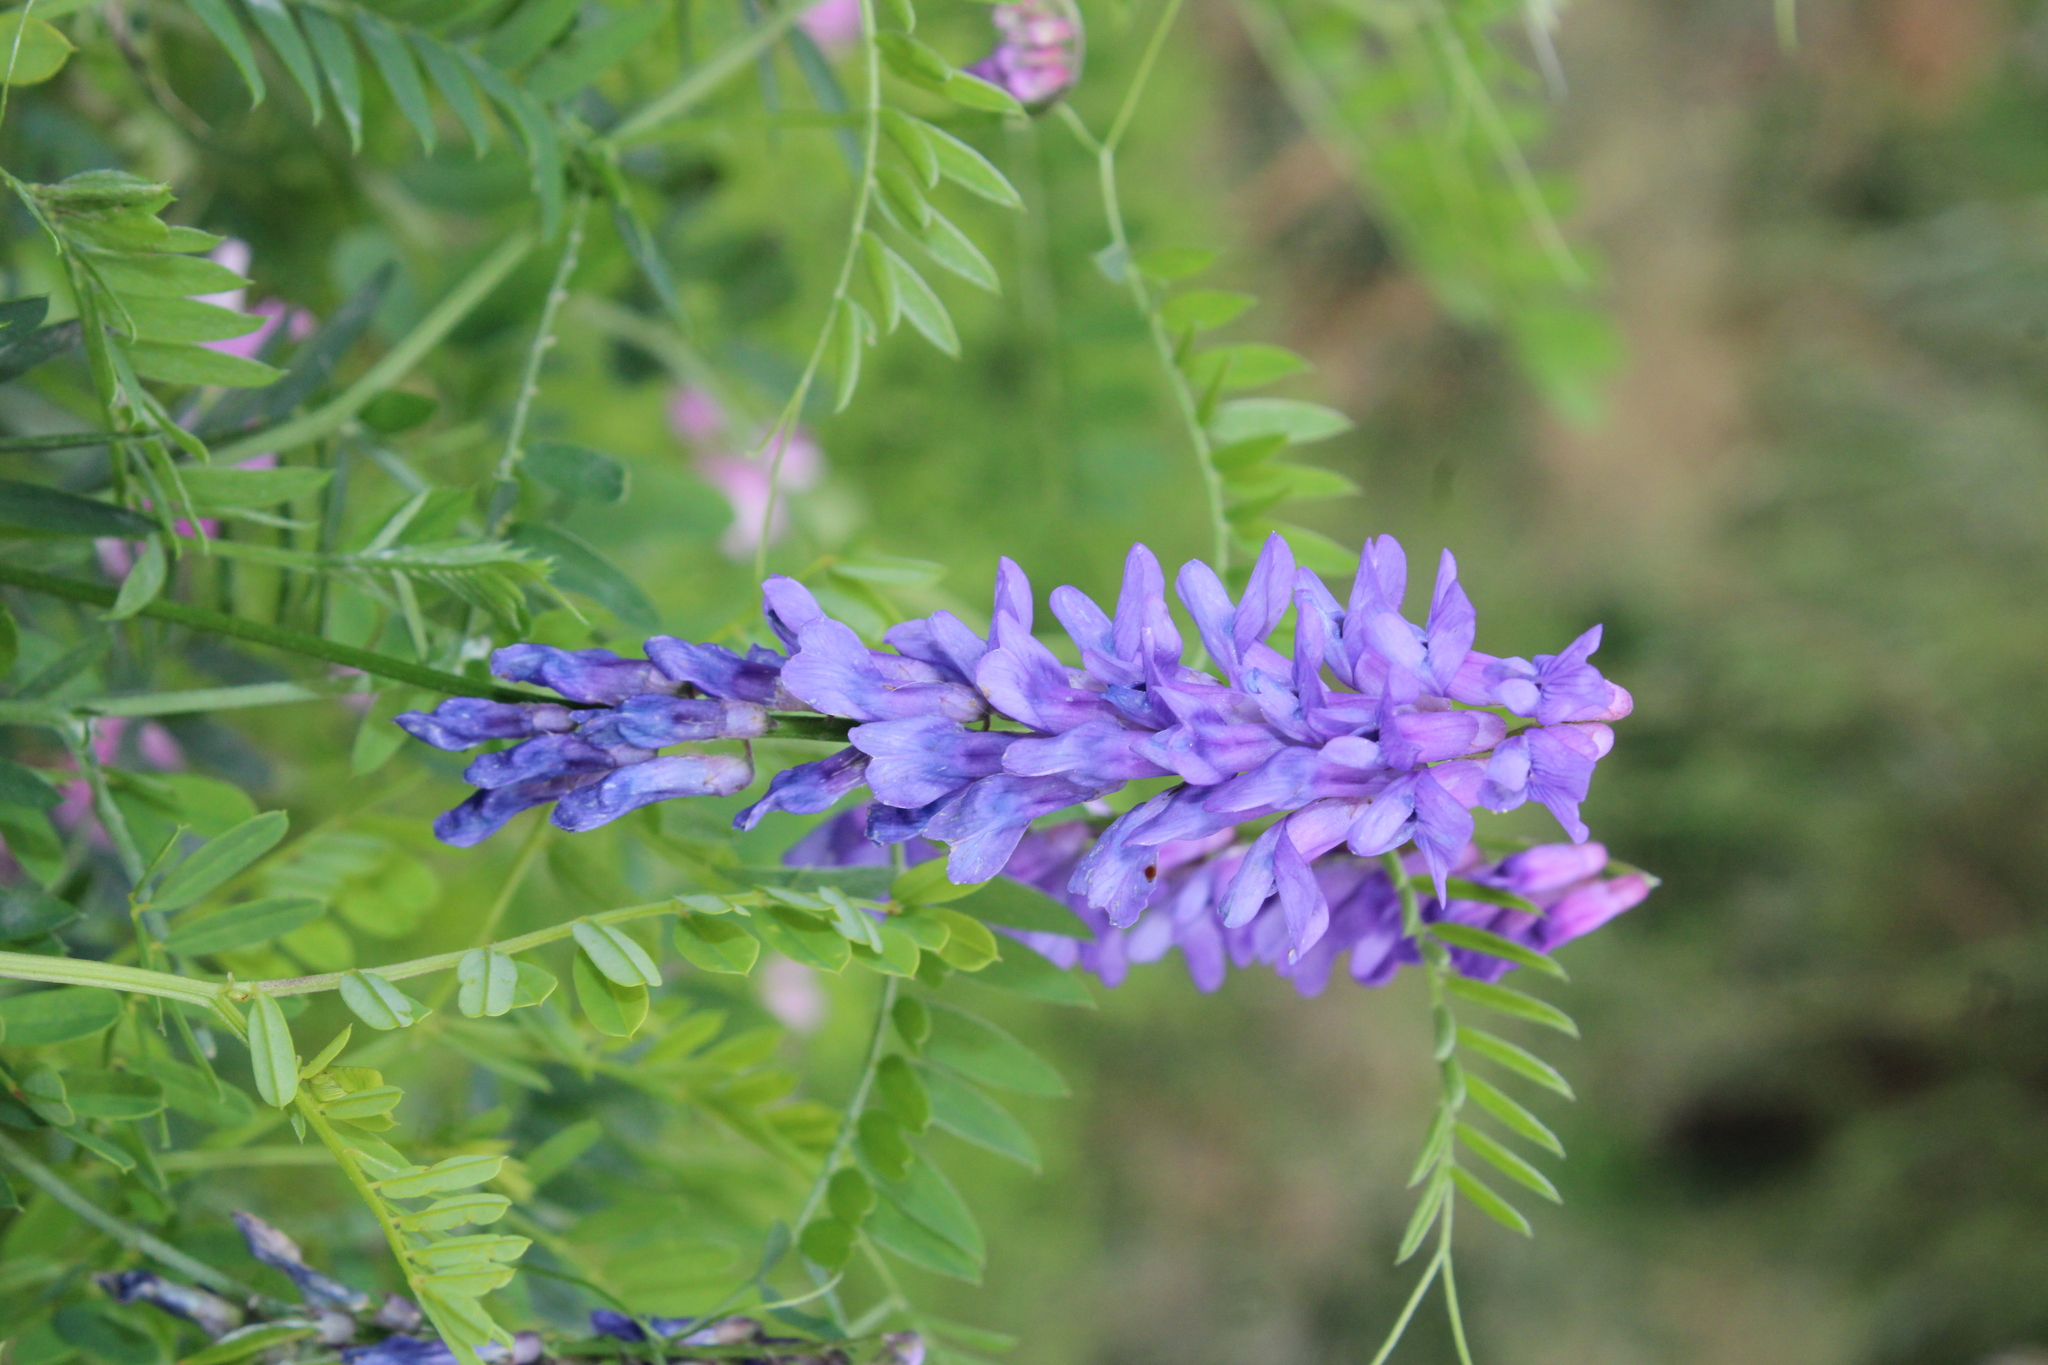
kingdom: Plantae
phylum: Tracheophyta
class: Magnoliopsida
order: Fabales
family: Fabaceae
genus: Vicia
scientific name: Vicia cracca
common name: Bird vetch
